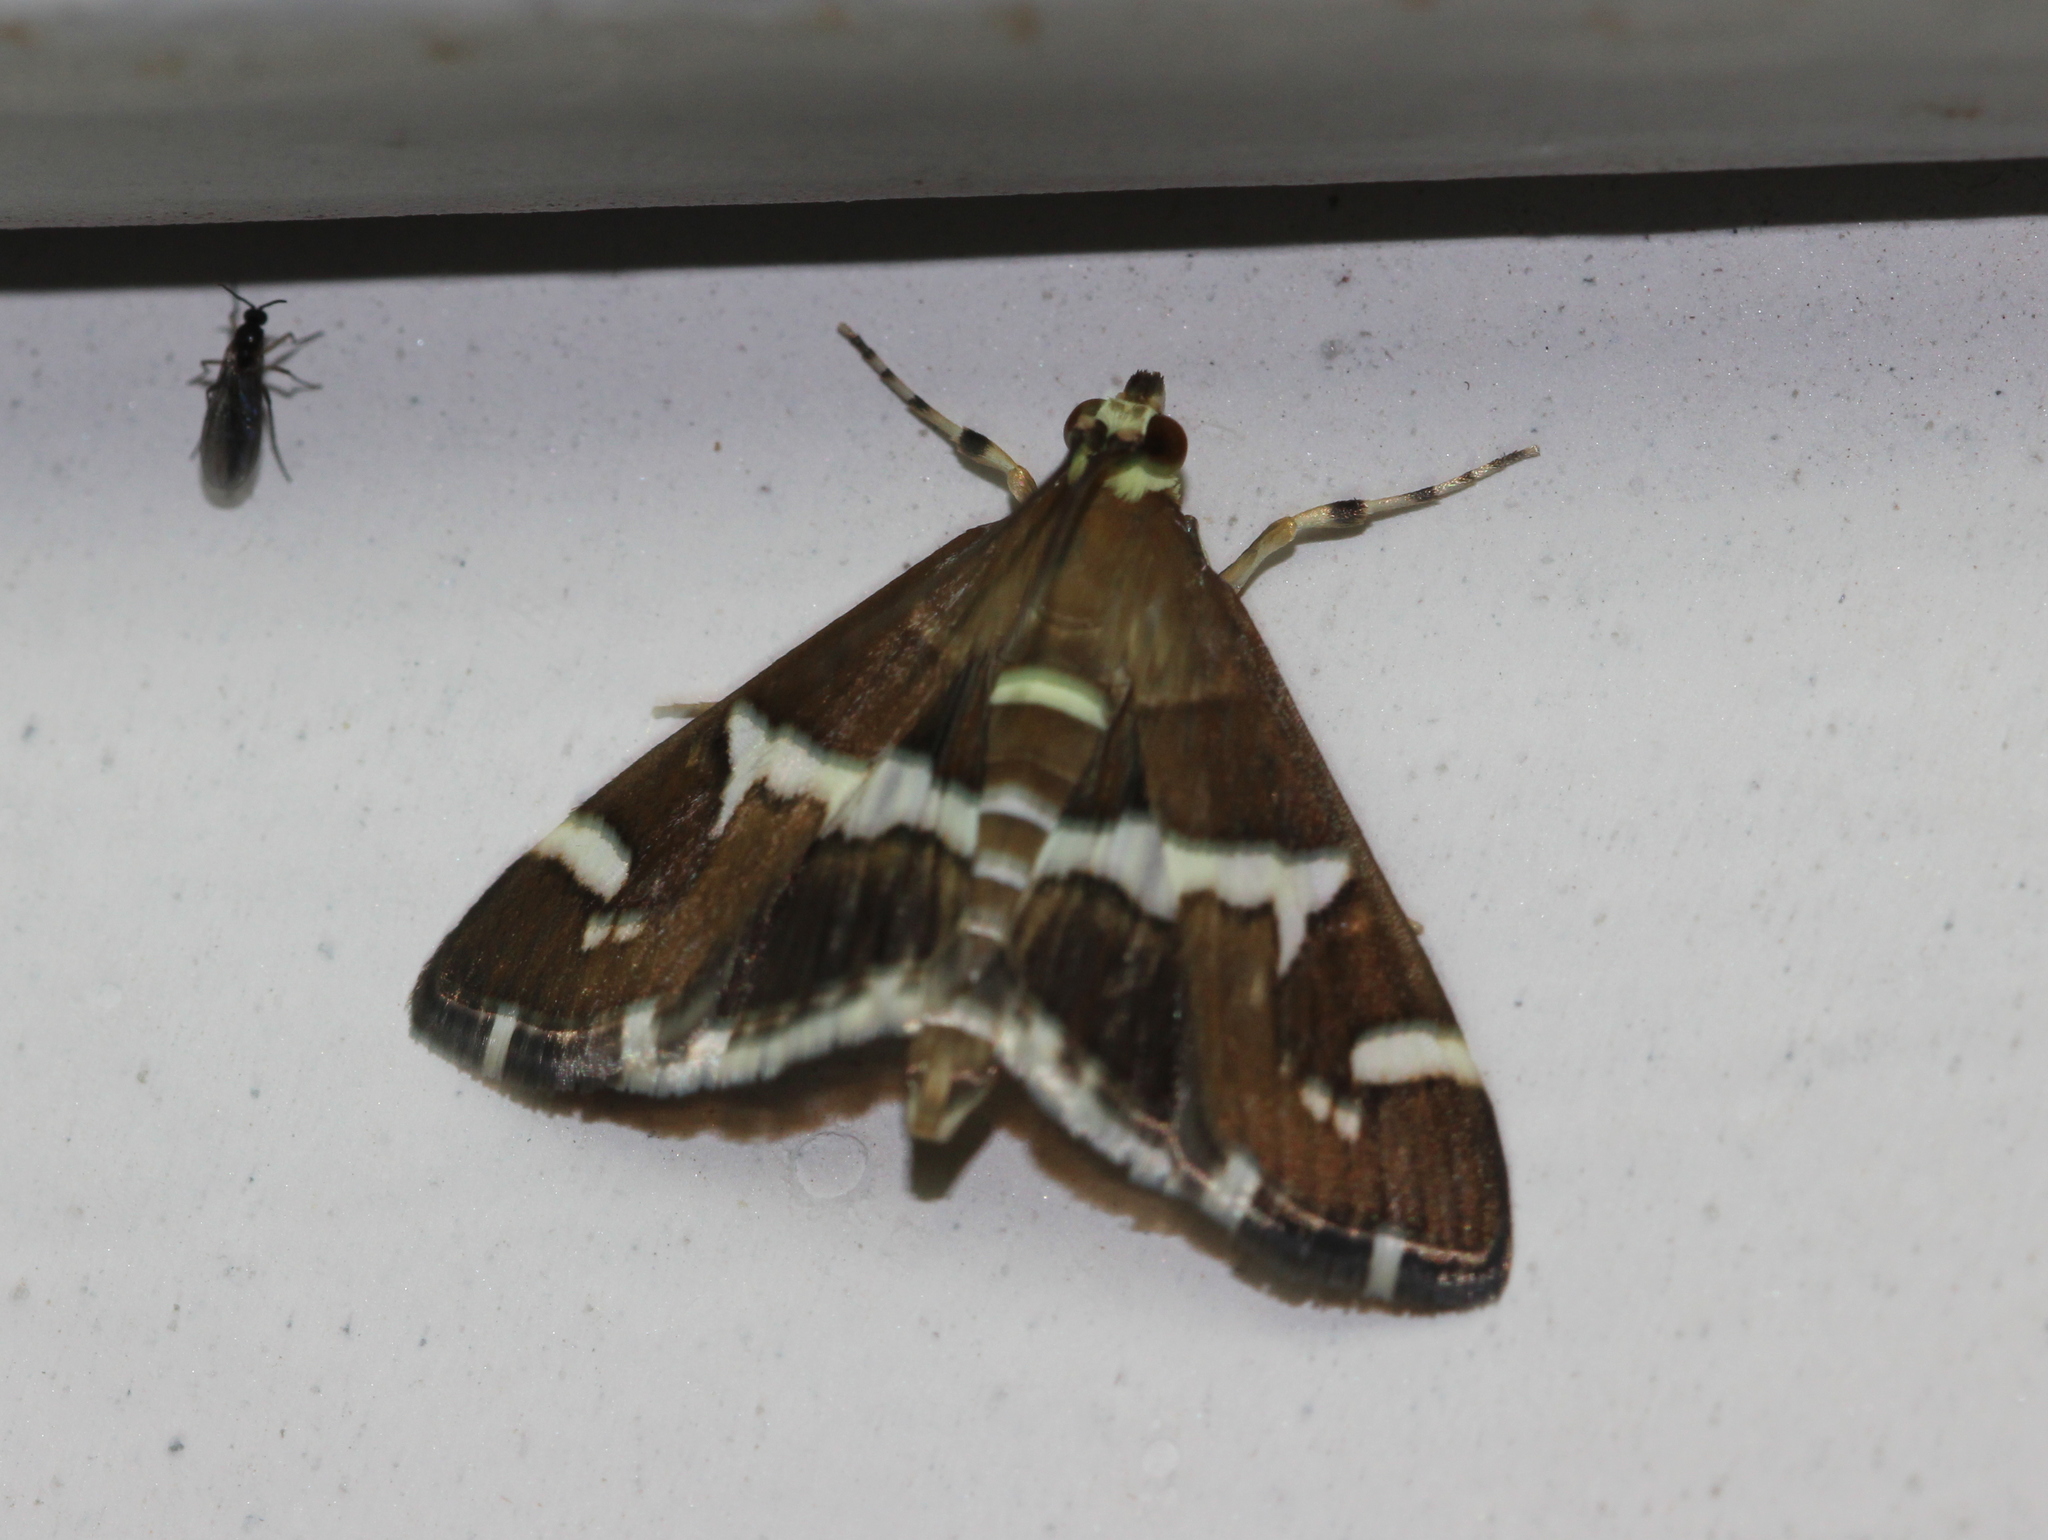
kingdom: Animalia
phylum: Arthropoda
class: Insecta
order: Lepidoptera
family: Crambidae
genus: Spoladea
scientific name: Spoladea recurvalis
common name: Beet webworm moth
